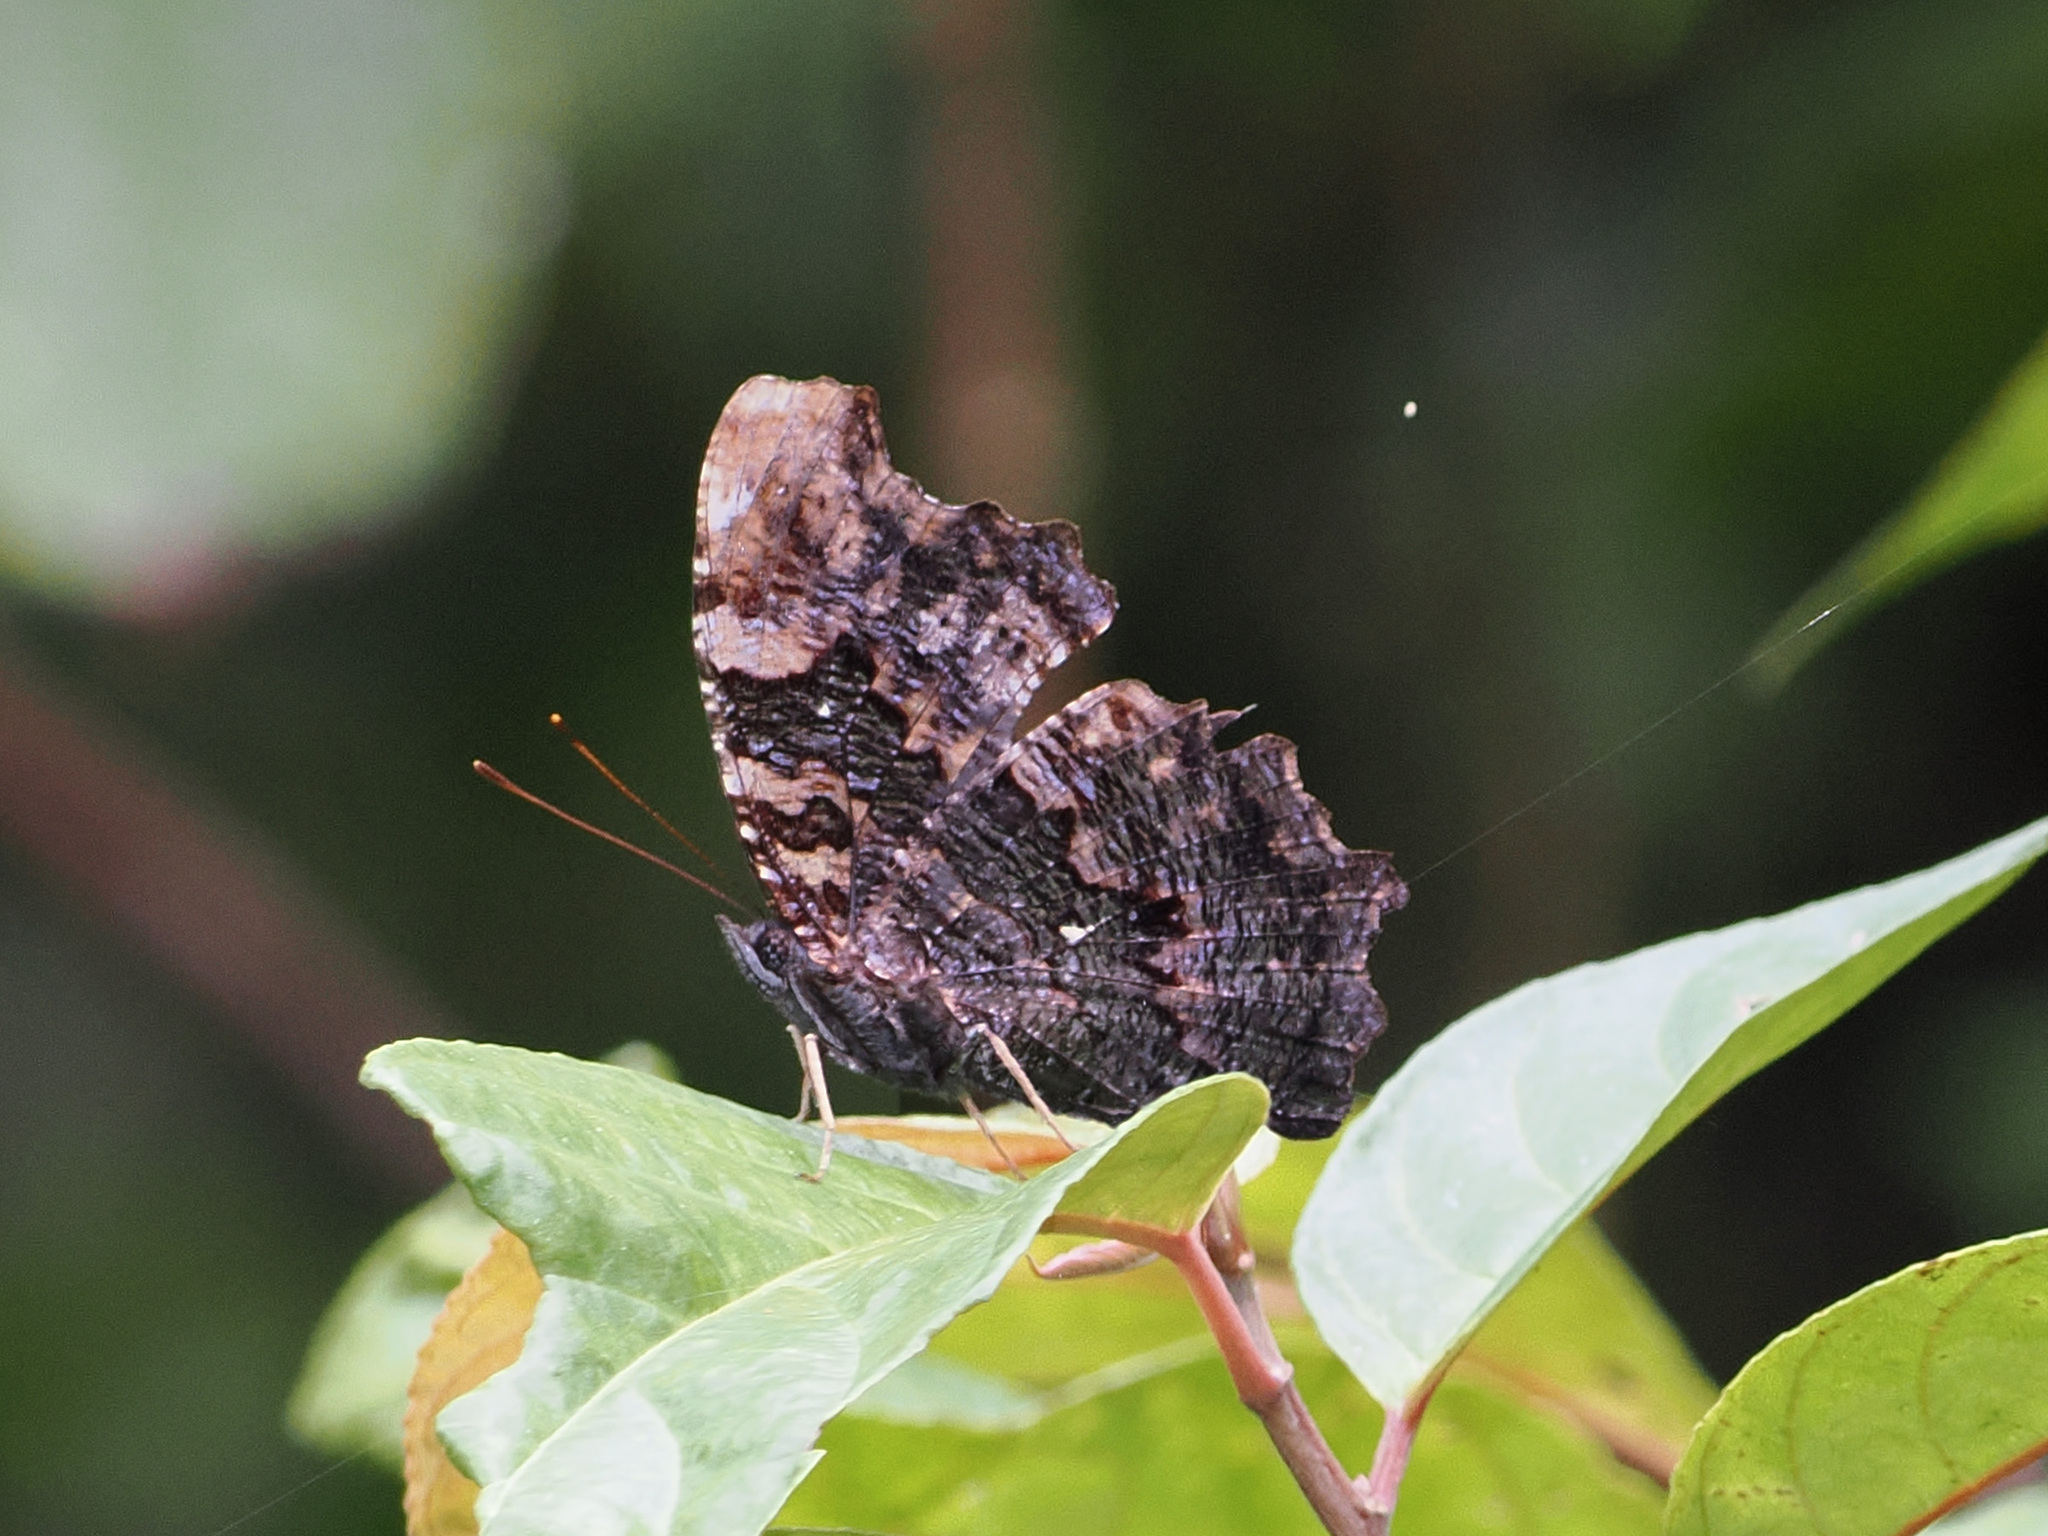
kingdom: Animalia
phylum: Arthropoda
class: Insecta
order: Lepidoptera
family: Nymphalidae
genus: Vanessa
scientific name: Vanessa Kaniska canace
